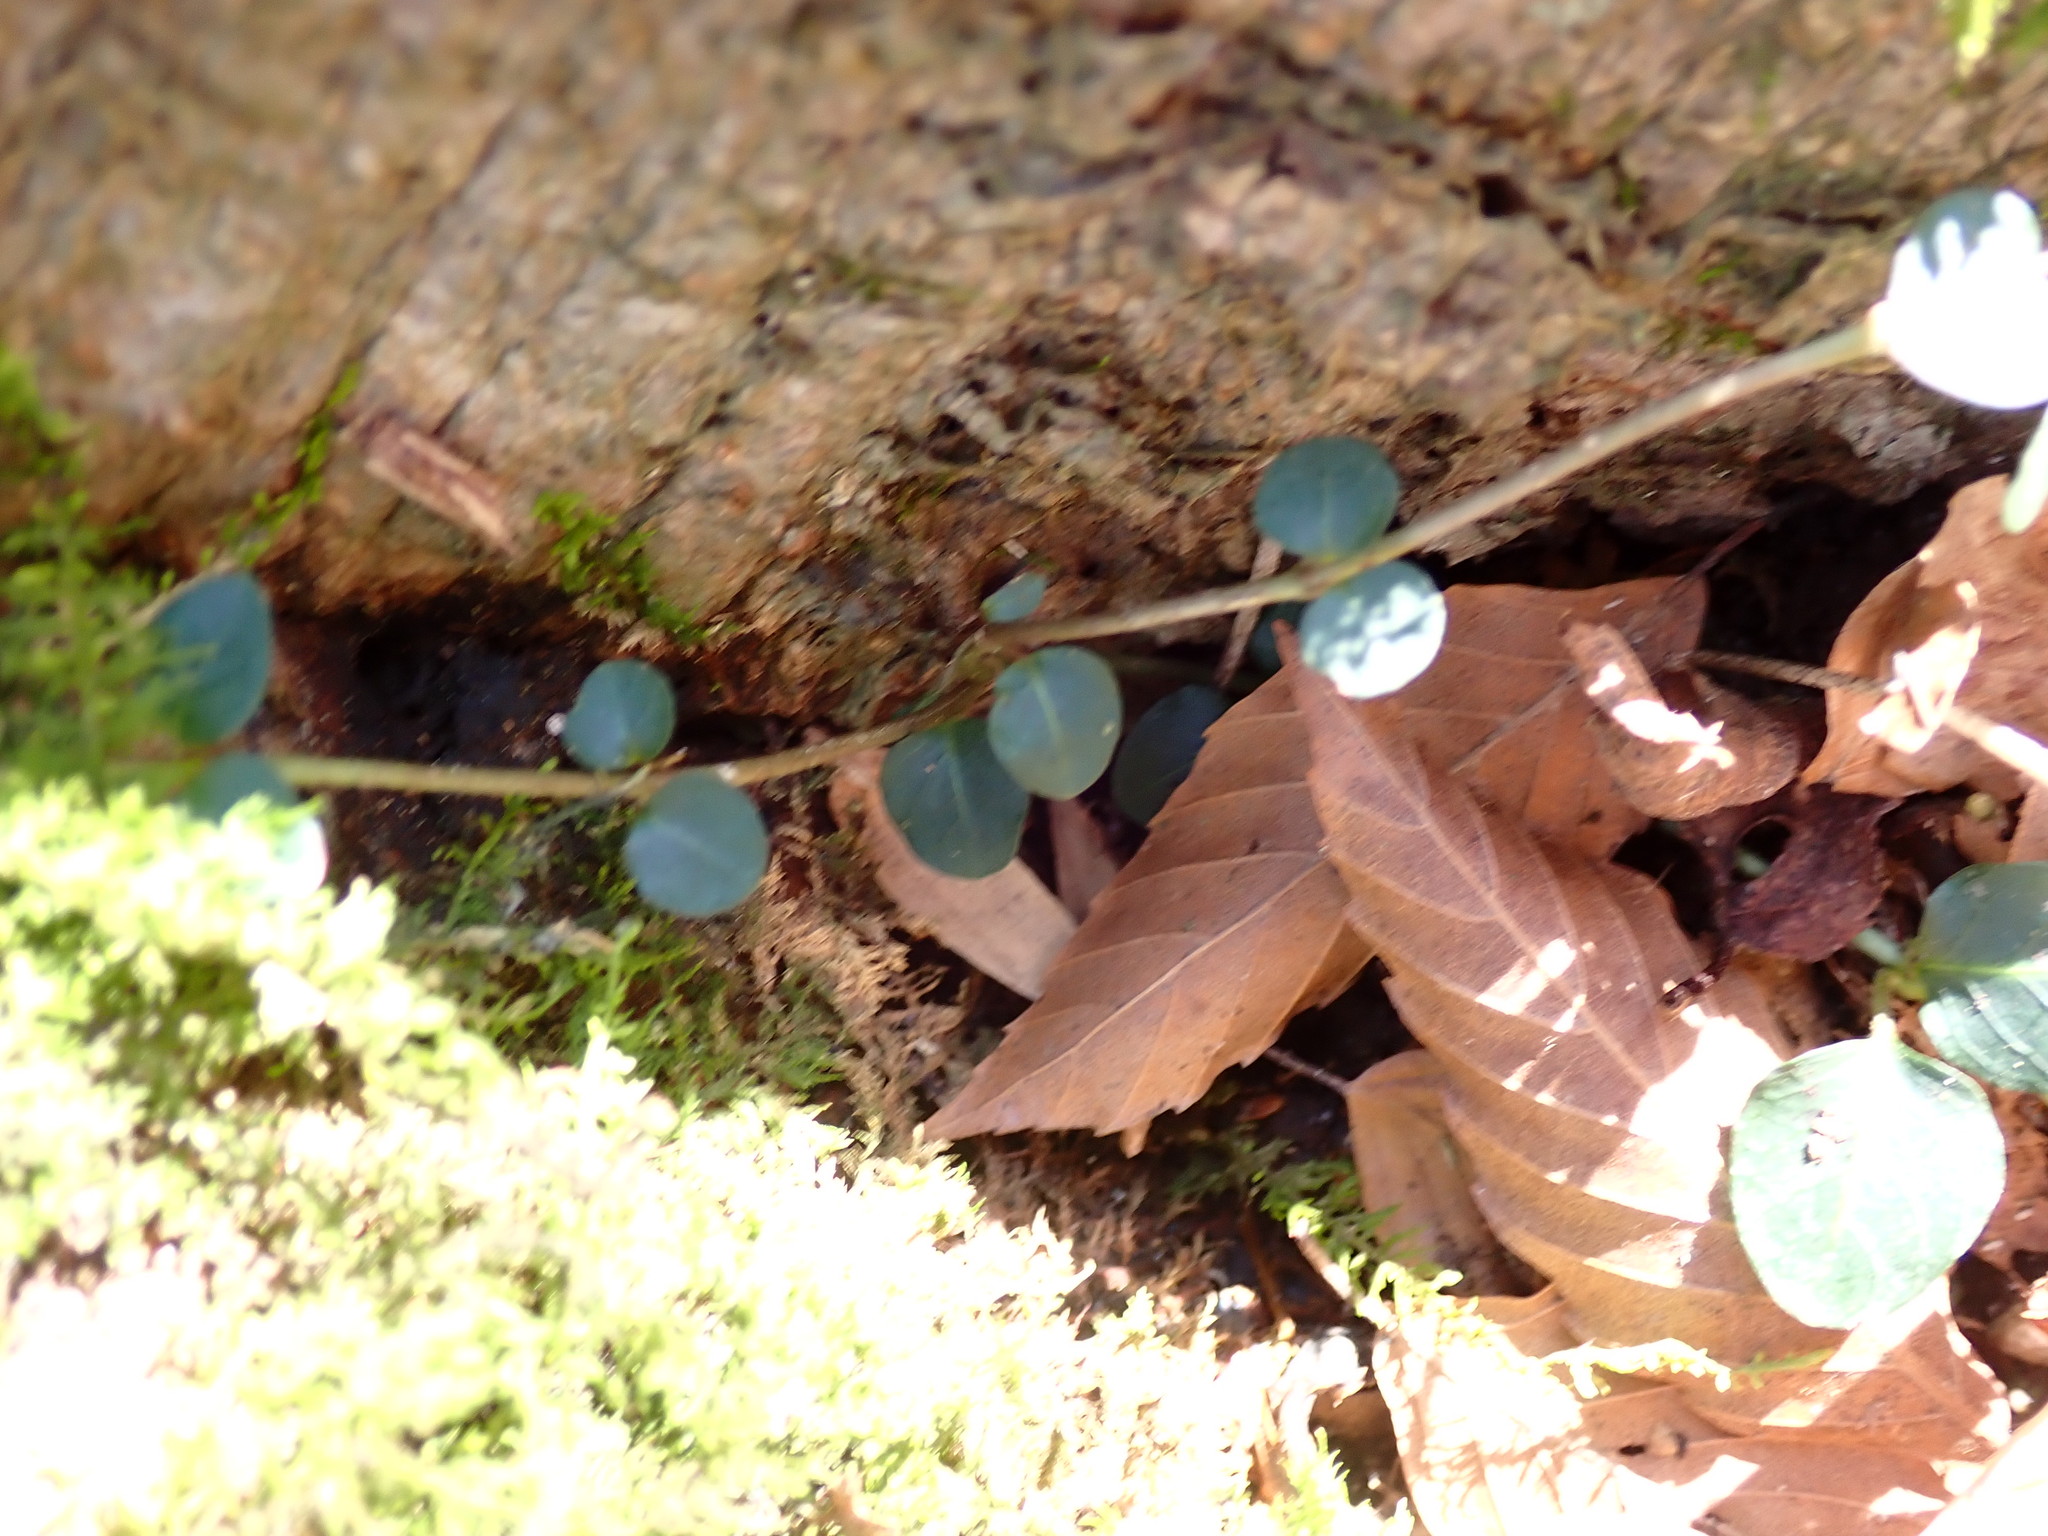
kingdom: Plantae
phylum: Tracheophyta
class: Magnoliopsida
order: Gentianales
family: Rubiaceae
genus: Mitchella
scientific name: Mitchella repens
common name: Partridge-berry
